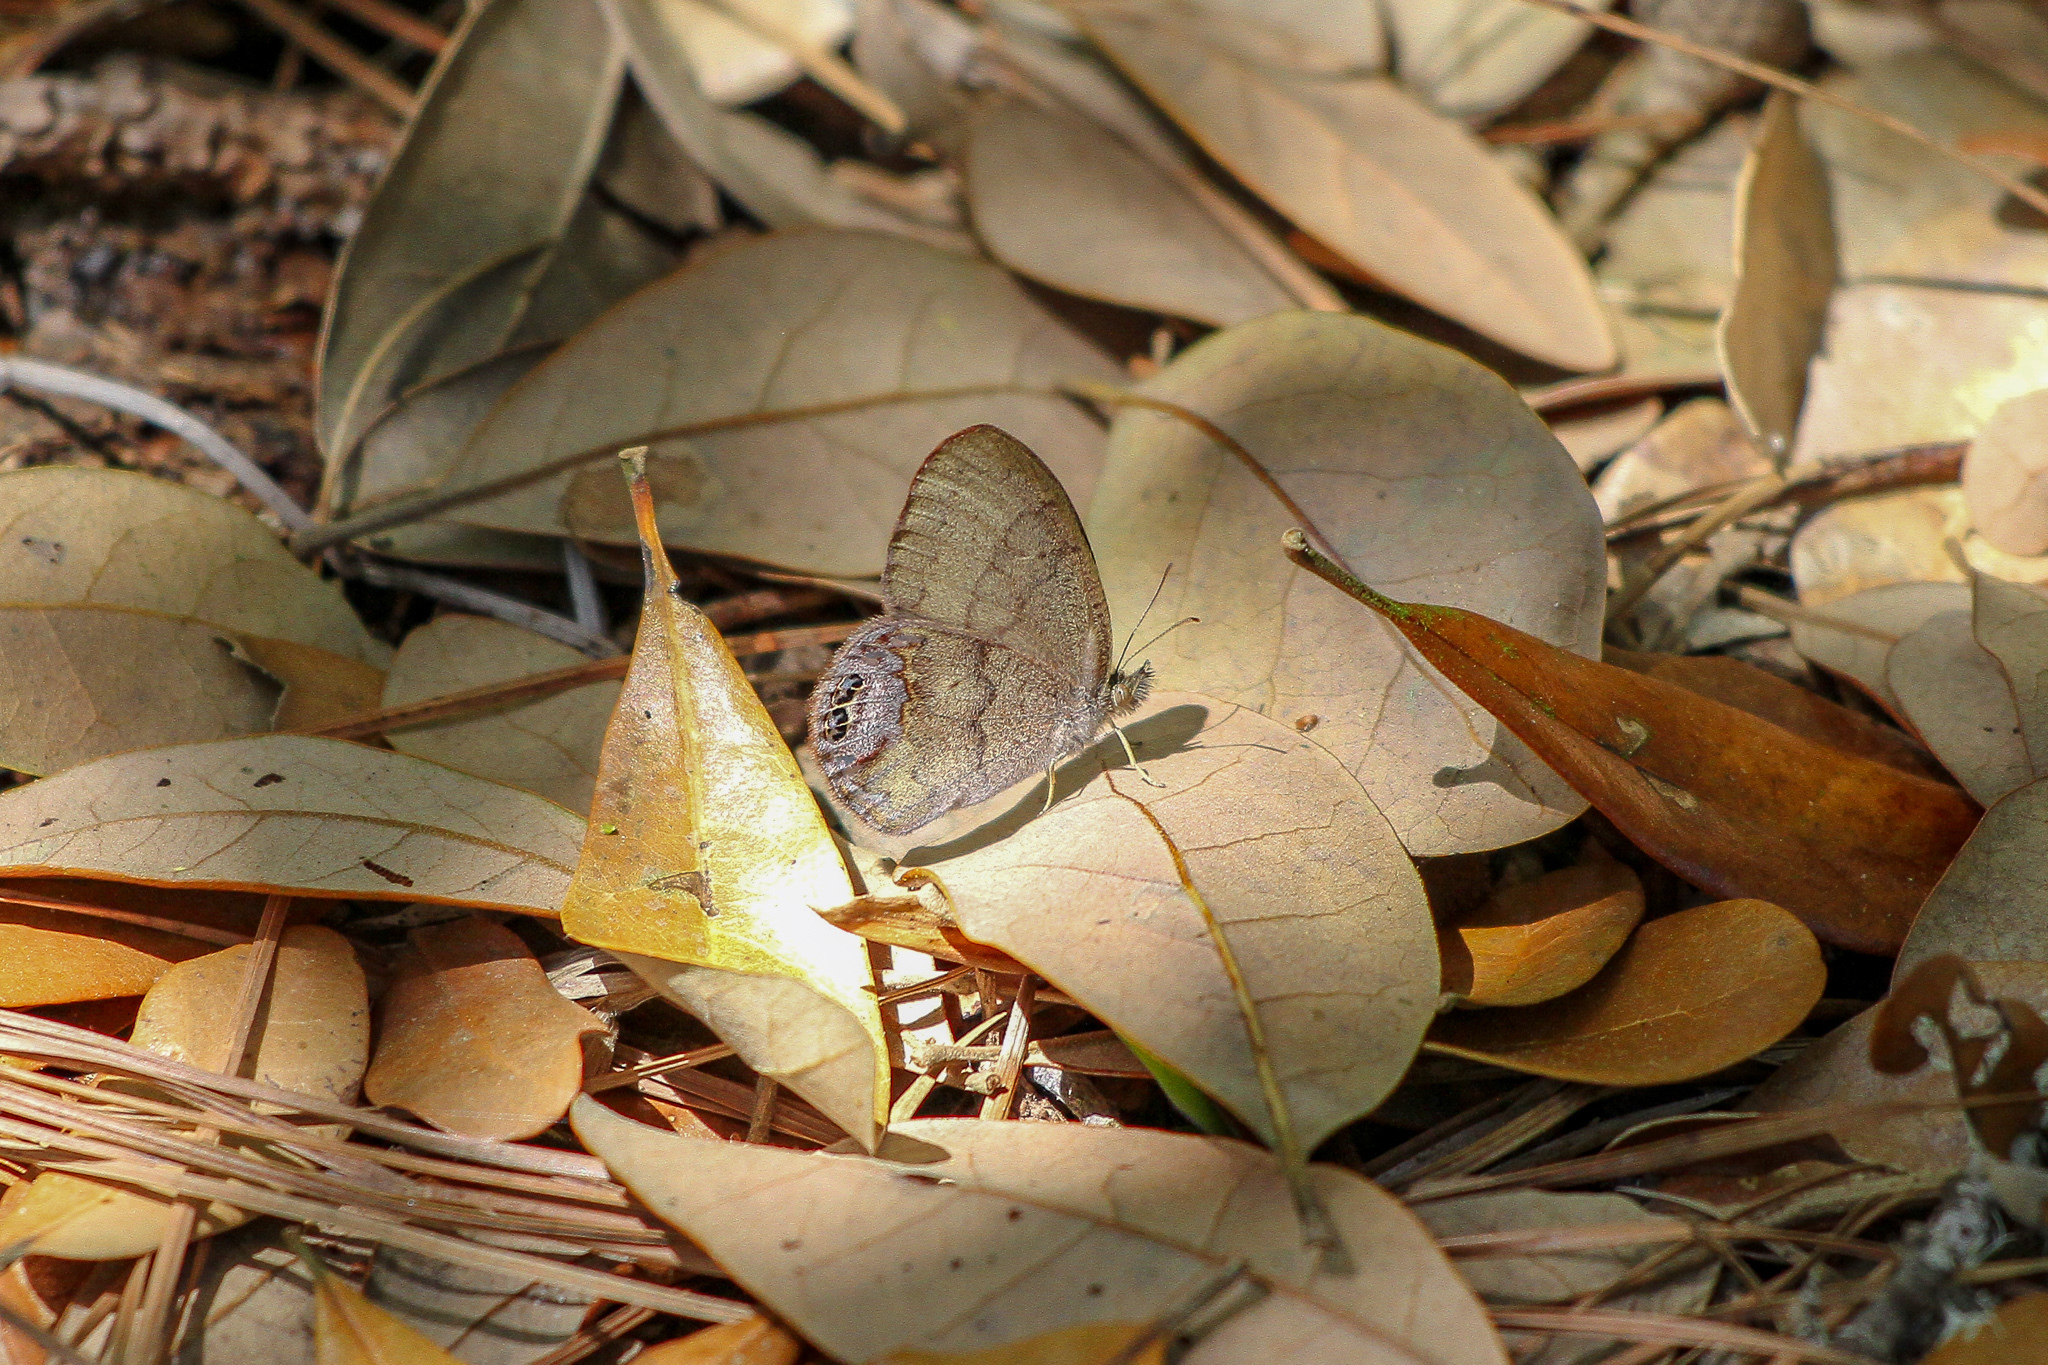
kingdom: Animalia
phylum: Arthropoda
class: Insecta
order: Lepidoptera
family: Nymphalidae
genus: Euptychia
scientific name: Euptychia cornelius
